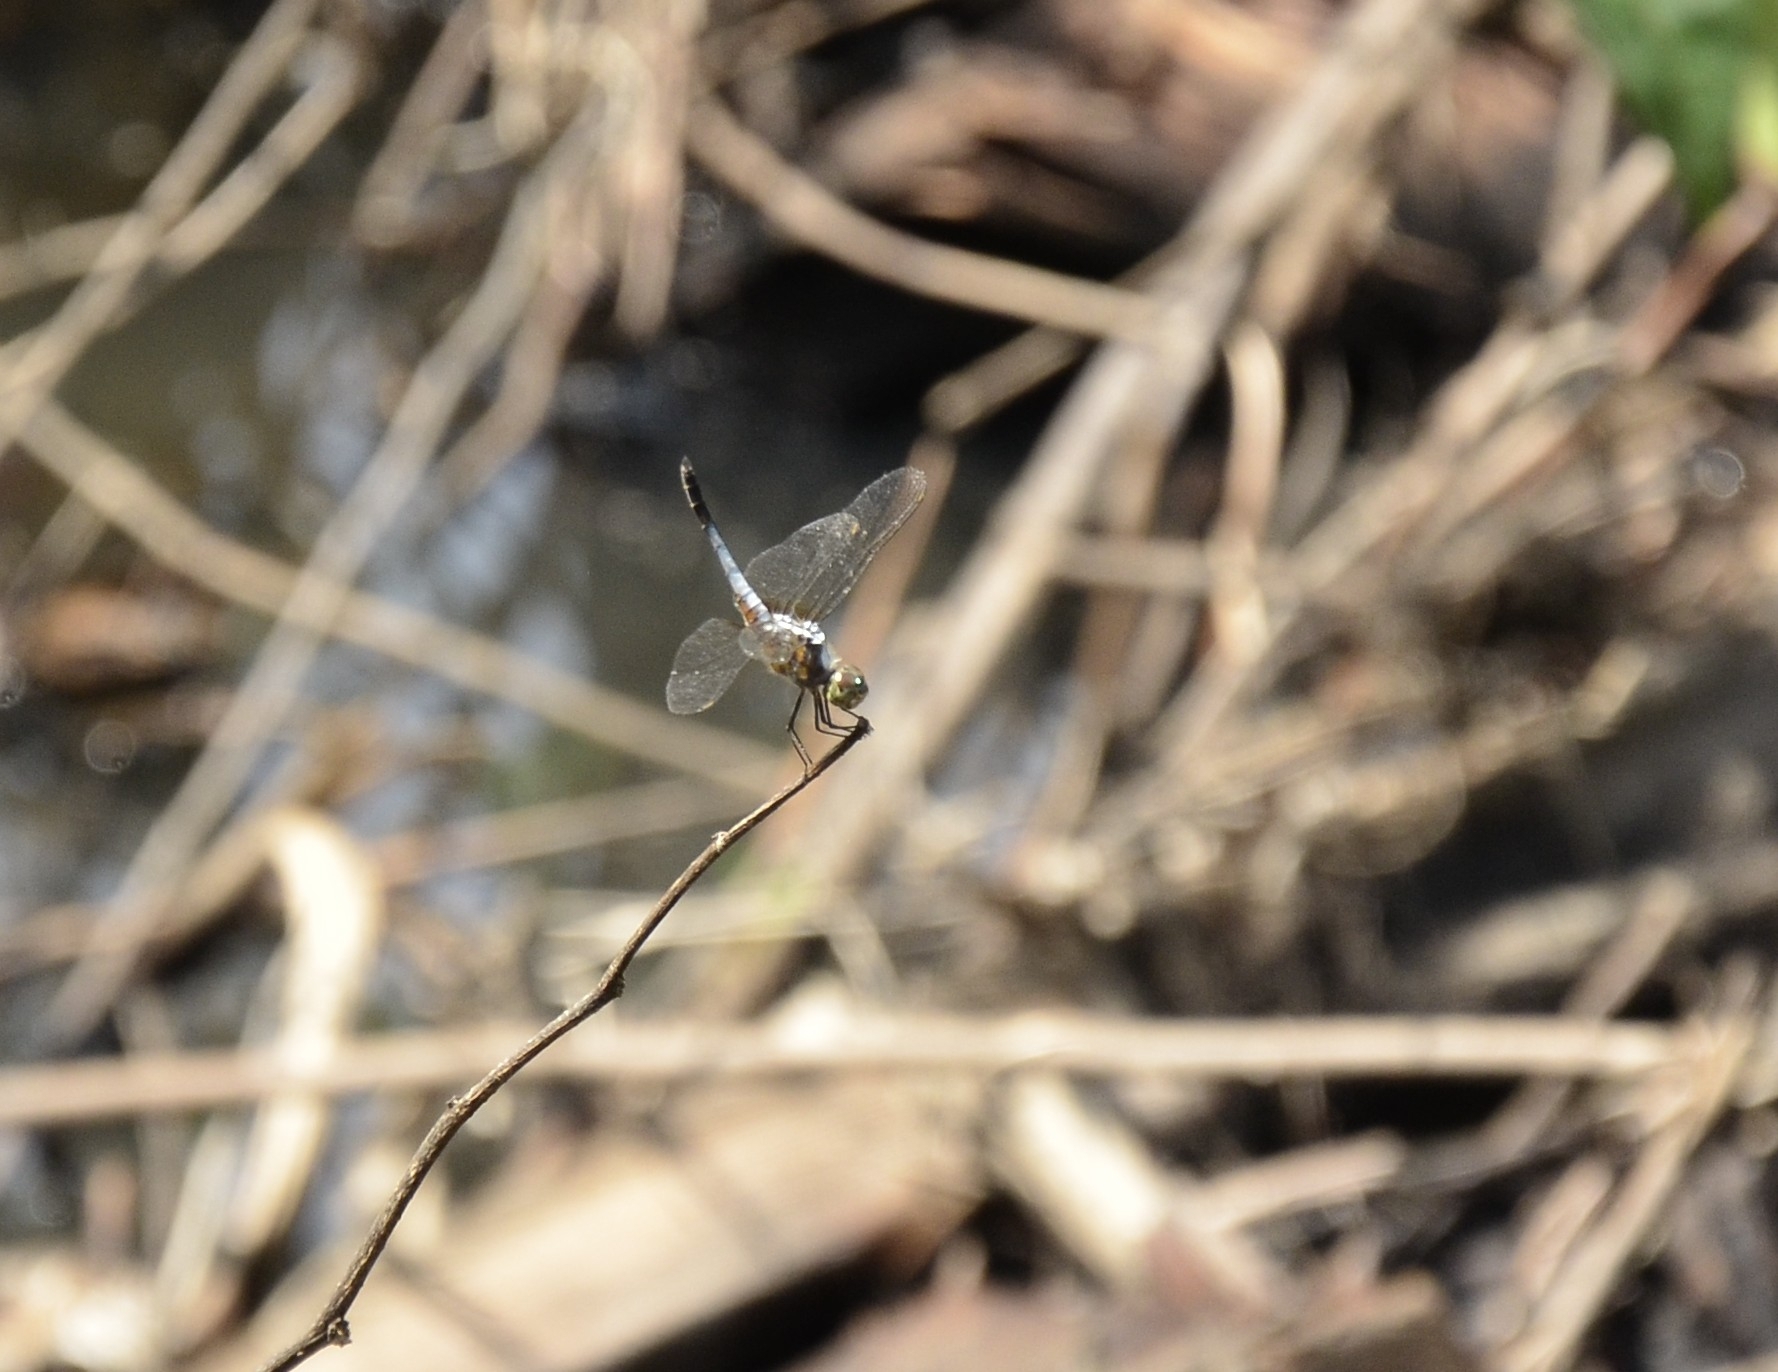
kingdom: Animalia
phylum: Arthropoda
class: Insecta
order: Odonata
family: Libellulidae
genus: Brachydiplax
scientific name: Brachydiplax chalybea
